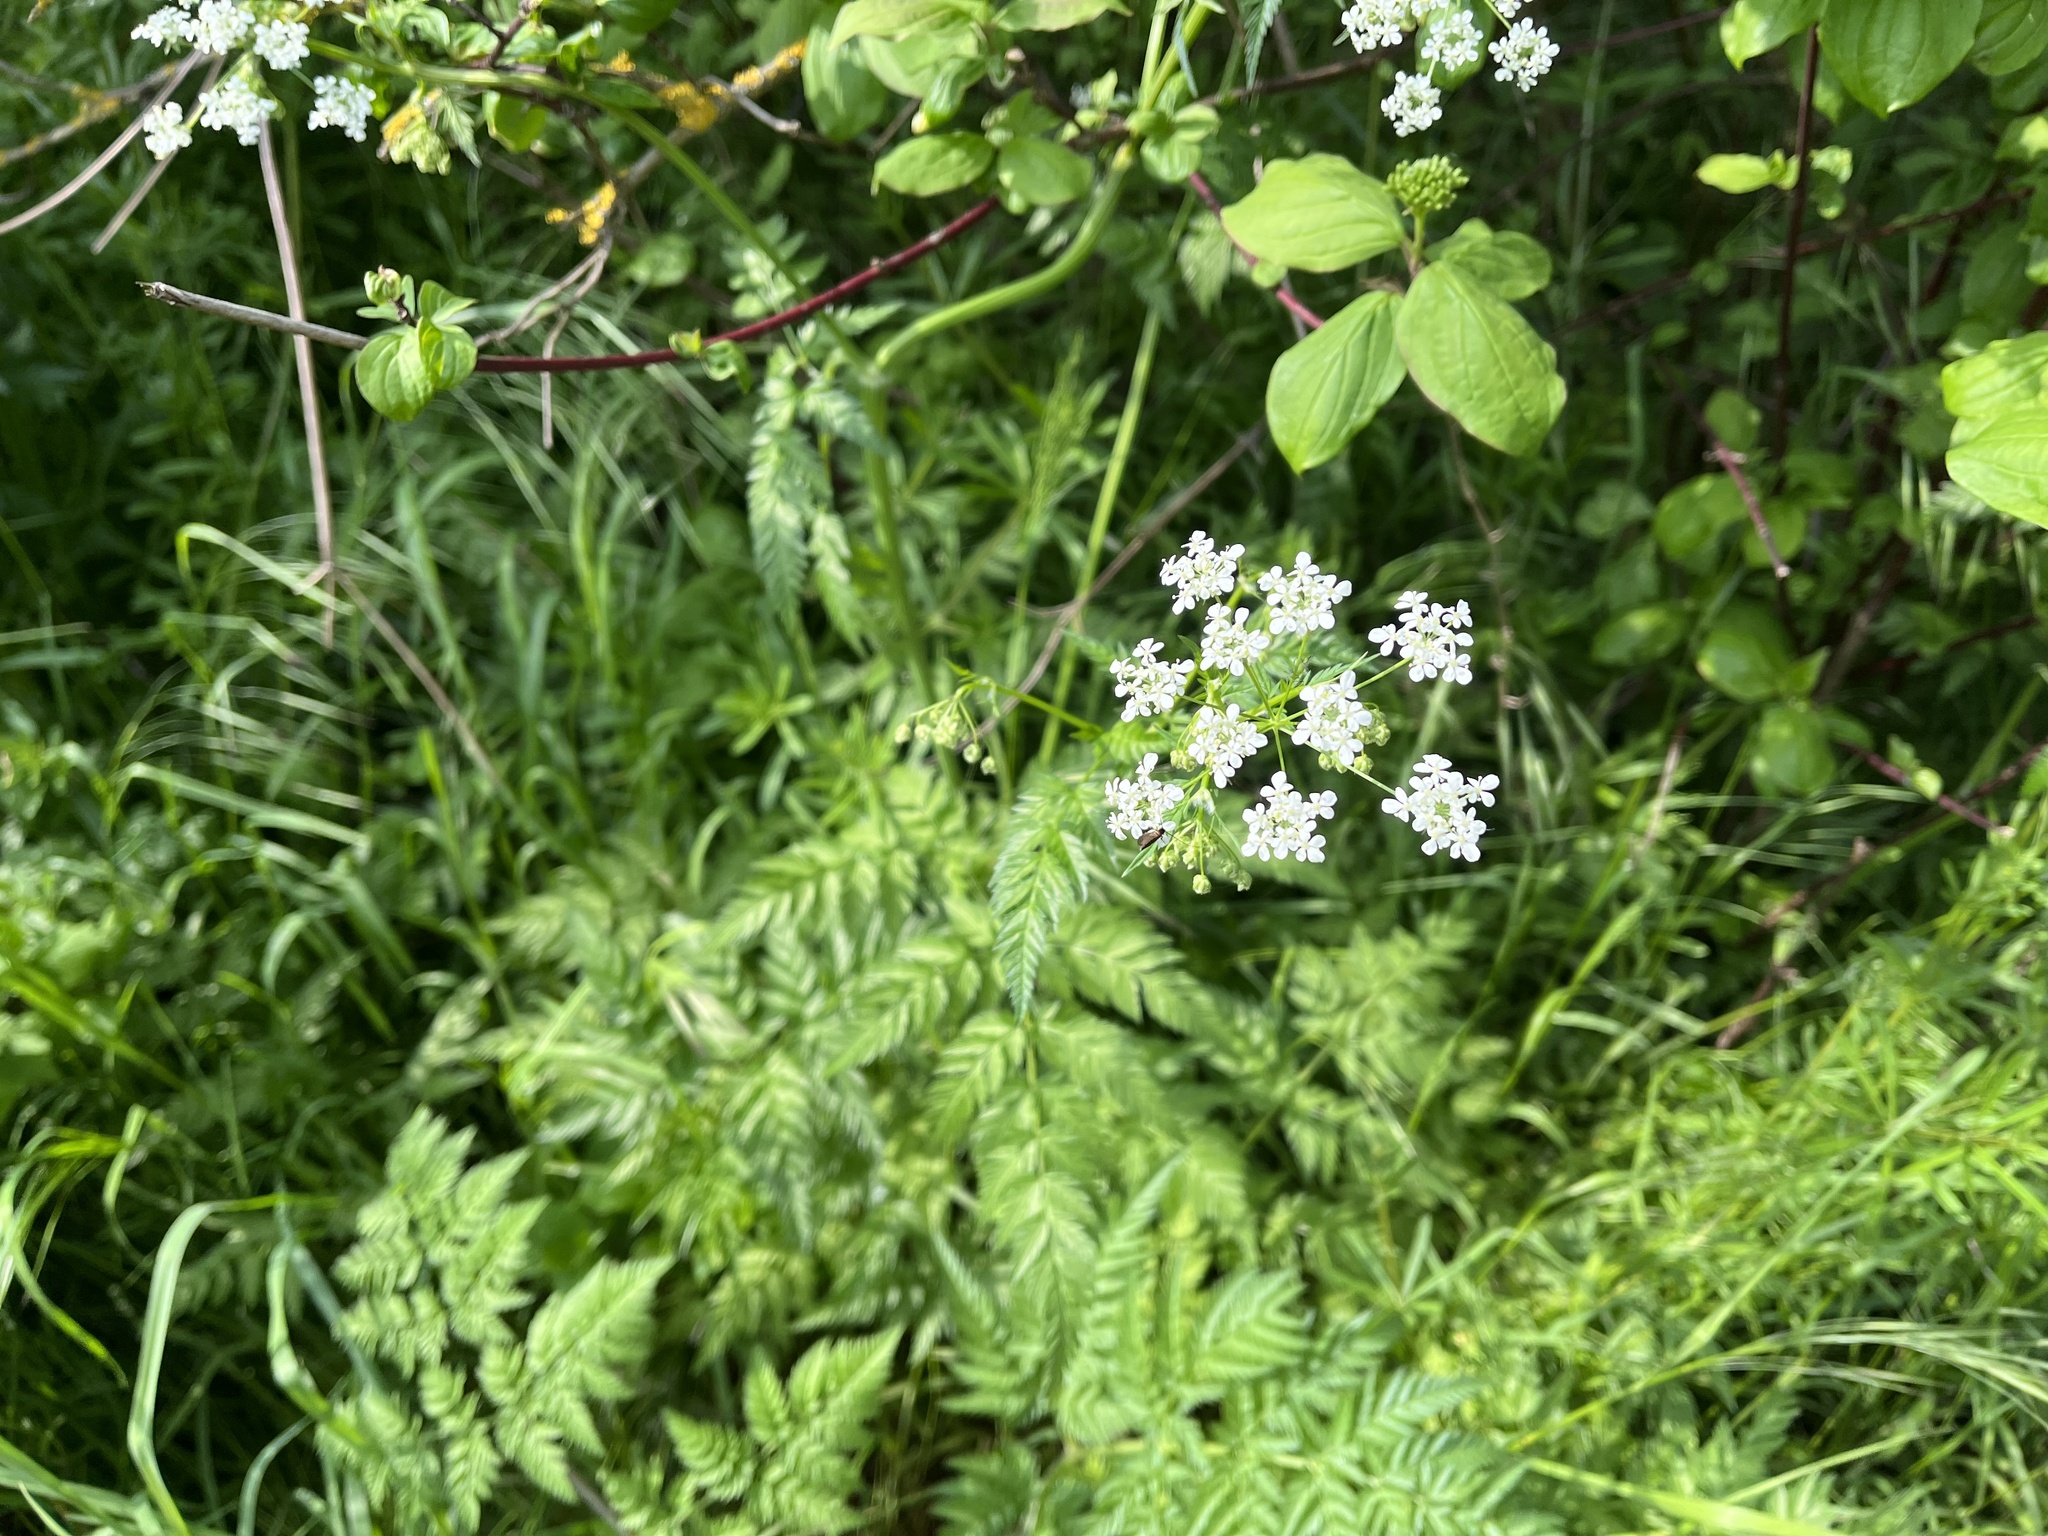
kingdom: Plantae
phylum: Tracheophyta
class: Magnoliopsida
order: Apiales
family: Apiaceae
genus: Anthriscus
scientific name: Anthriscus sylvestris
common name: Cow parsley
